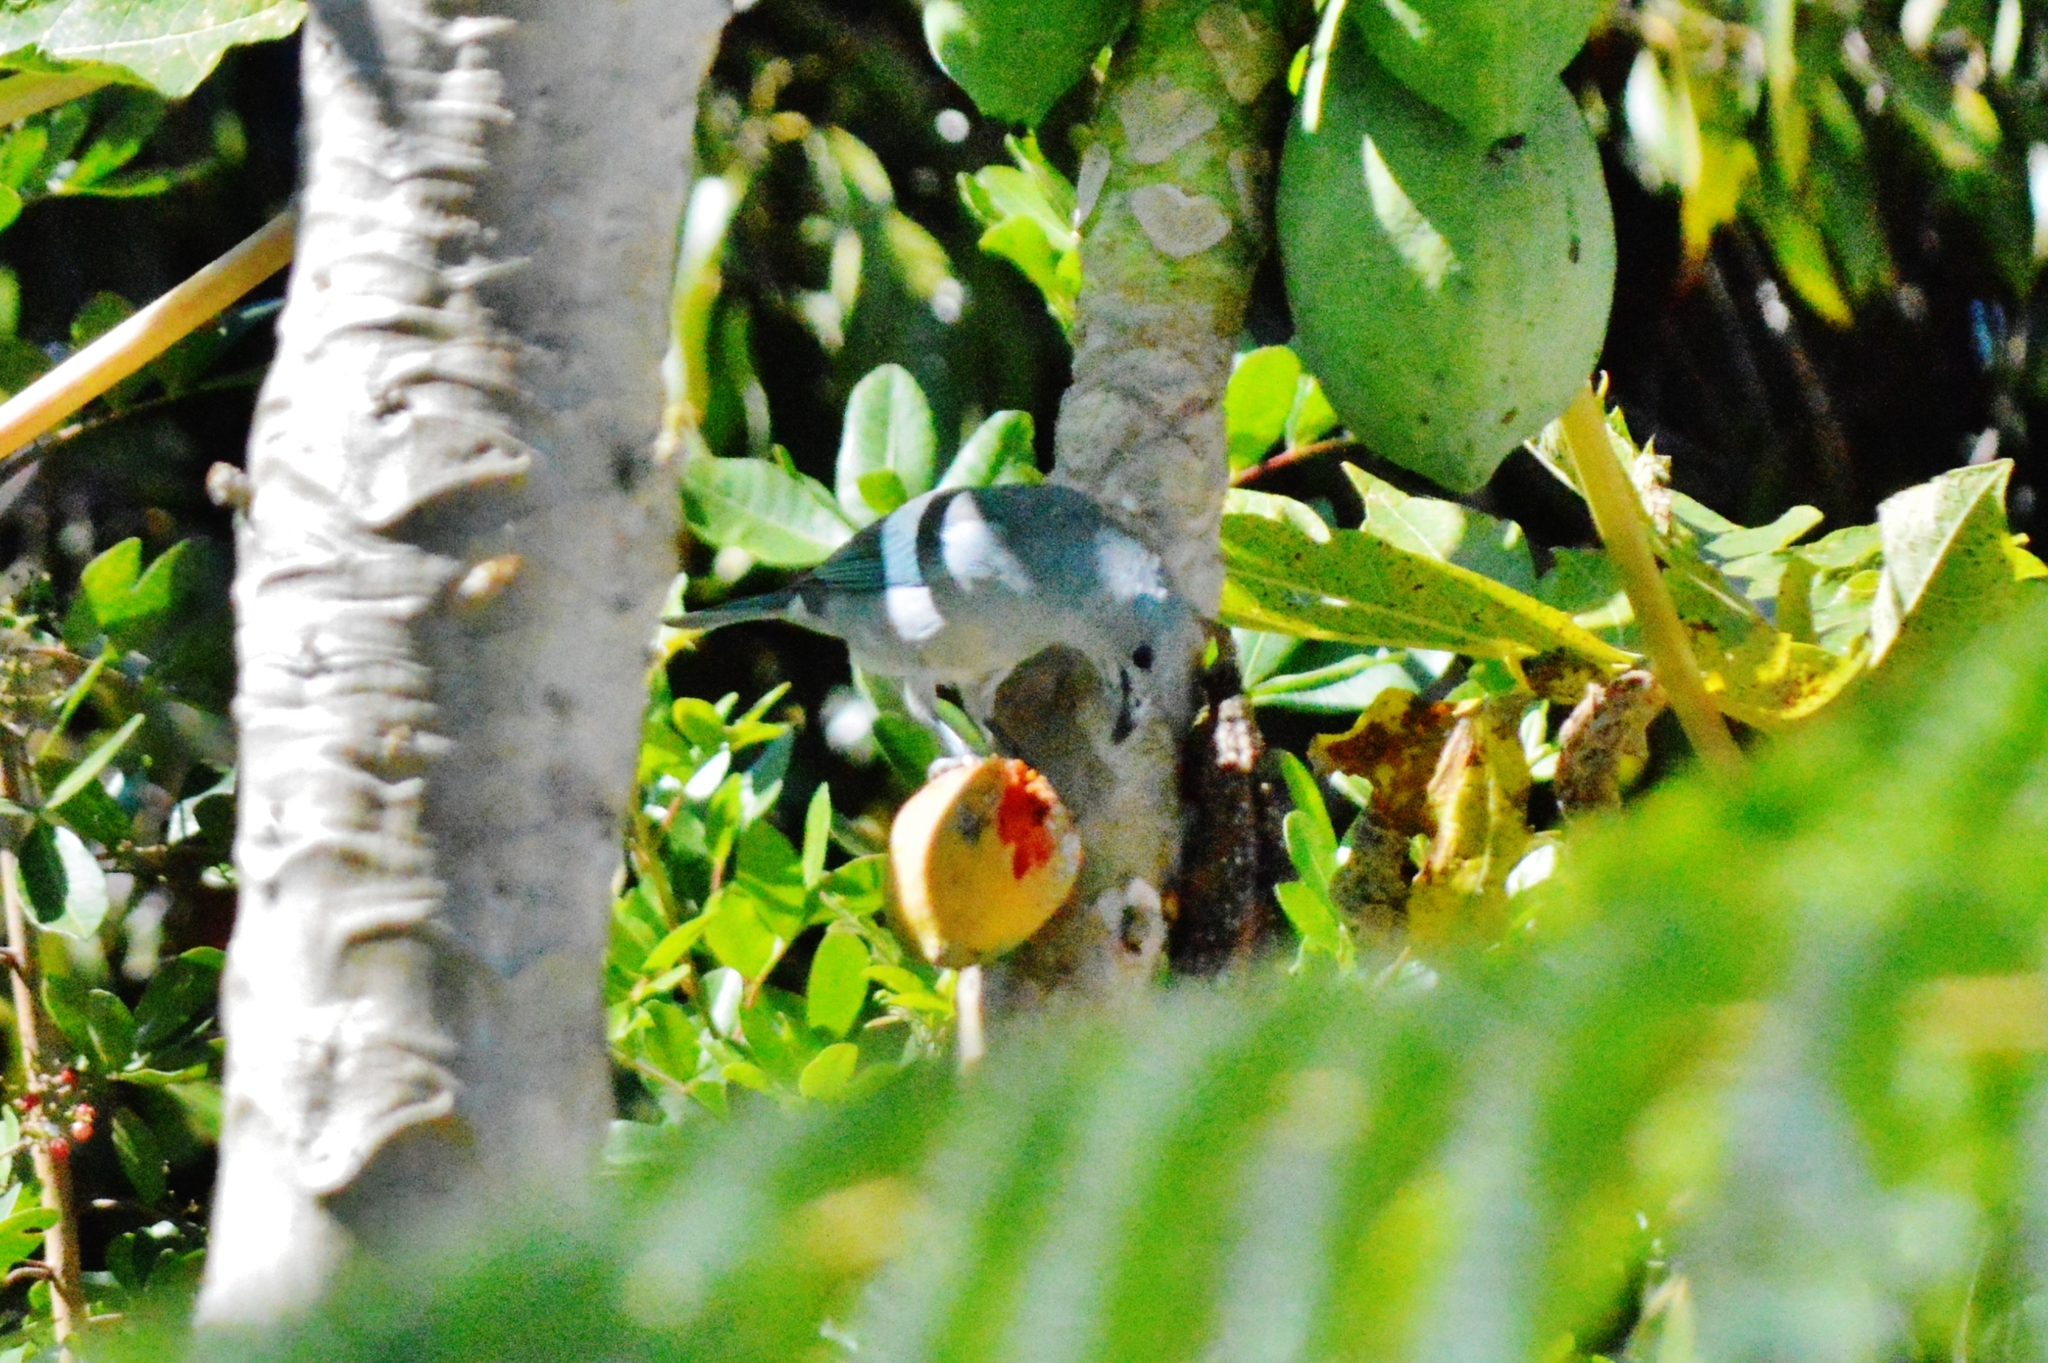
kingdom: Animalia
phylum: Chordata
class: Aves
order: Passeriformes
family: Thraupidae
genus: Thraupis
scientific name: Thraupis sayaca
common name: Sayaca tanager
